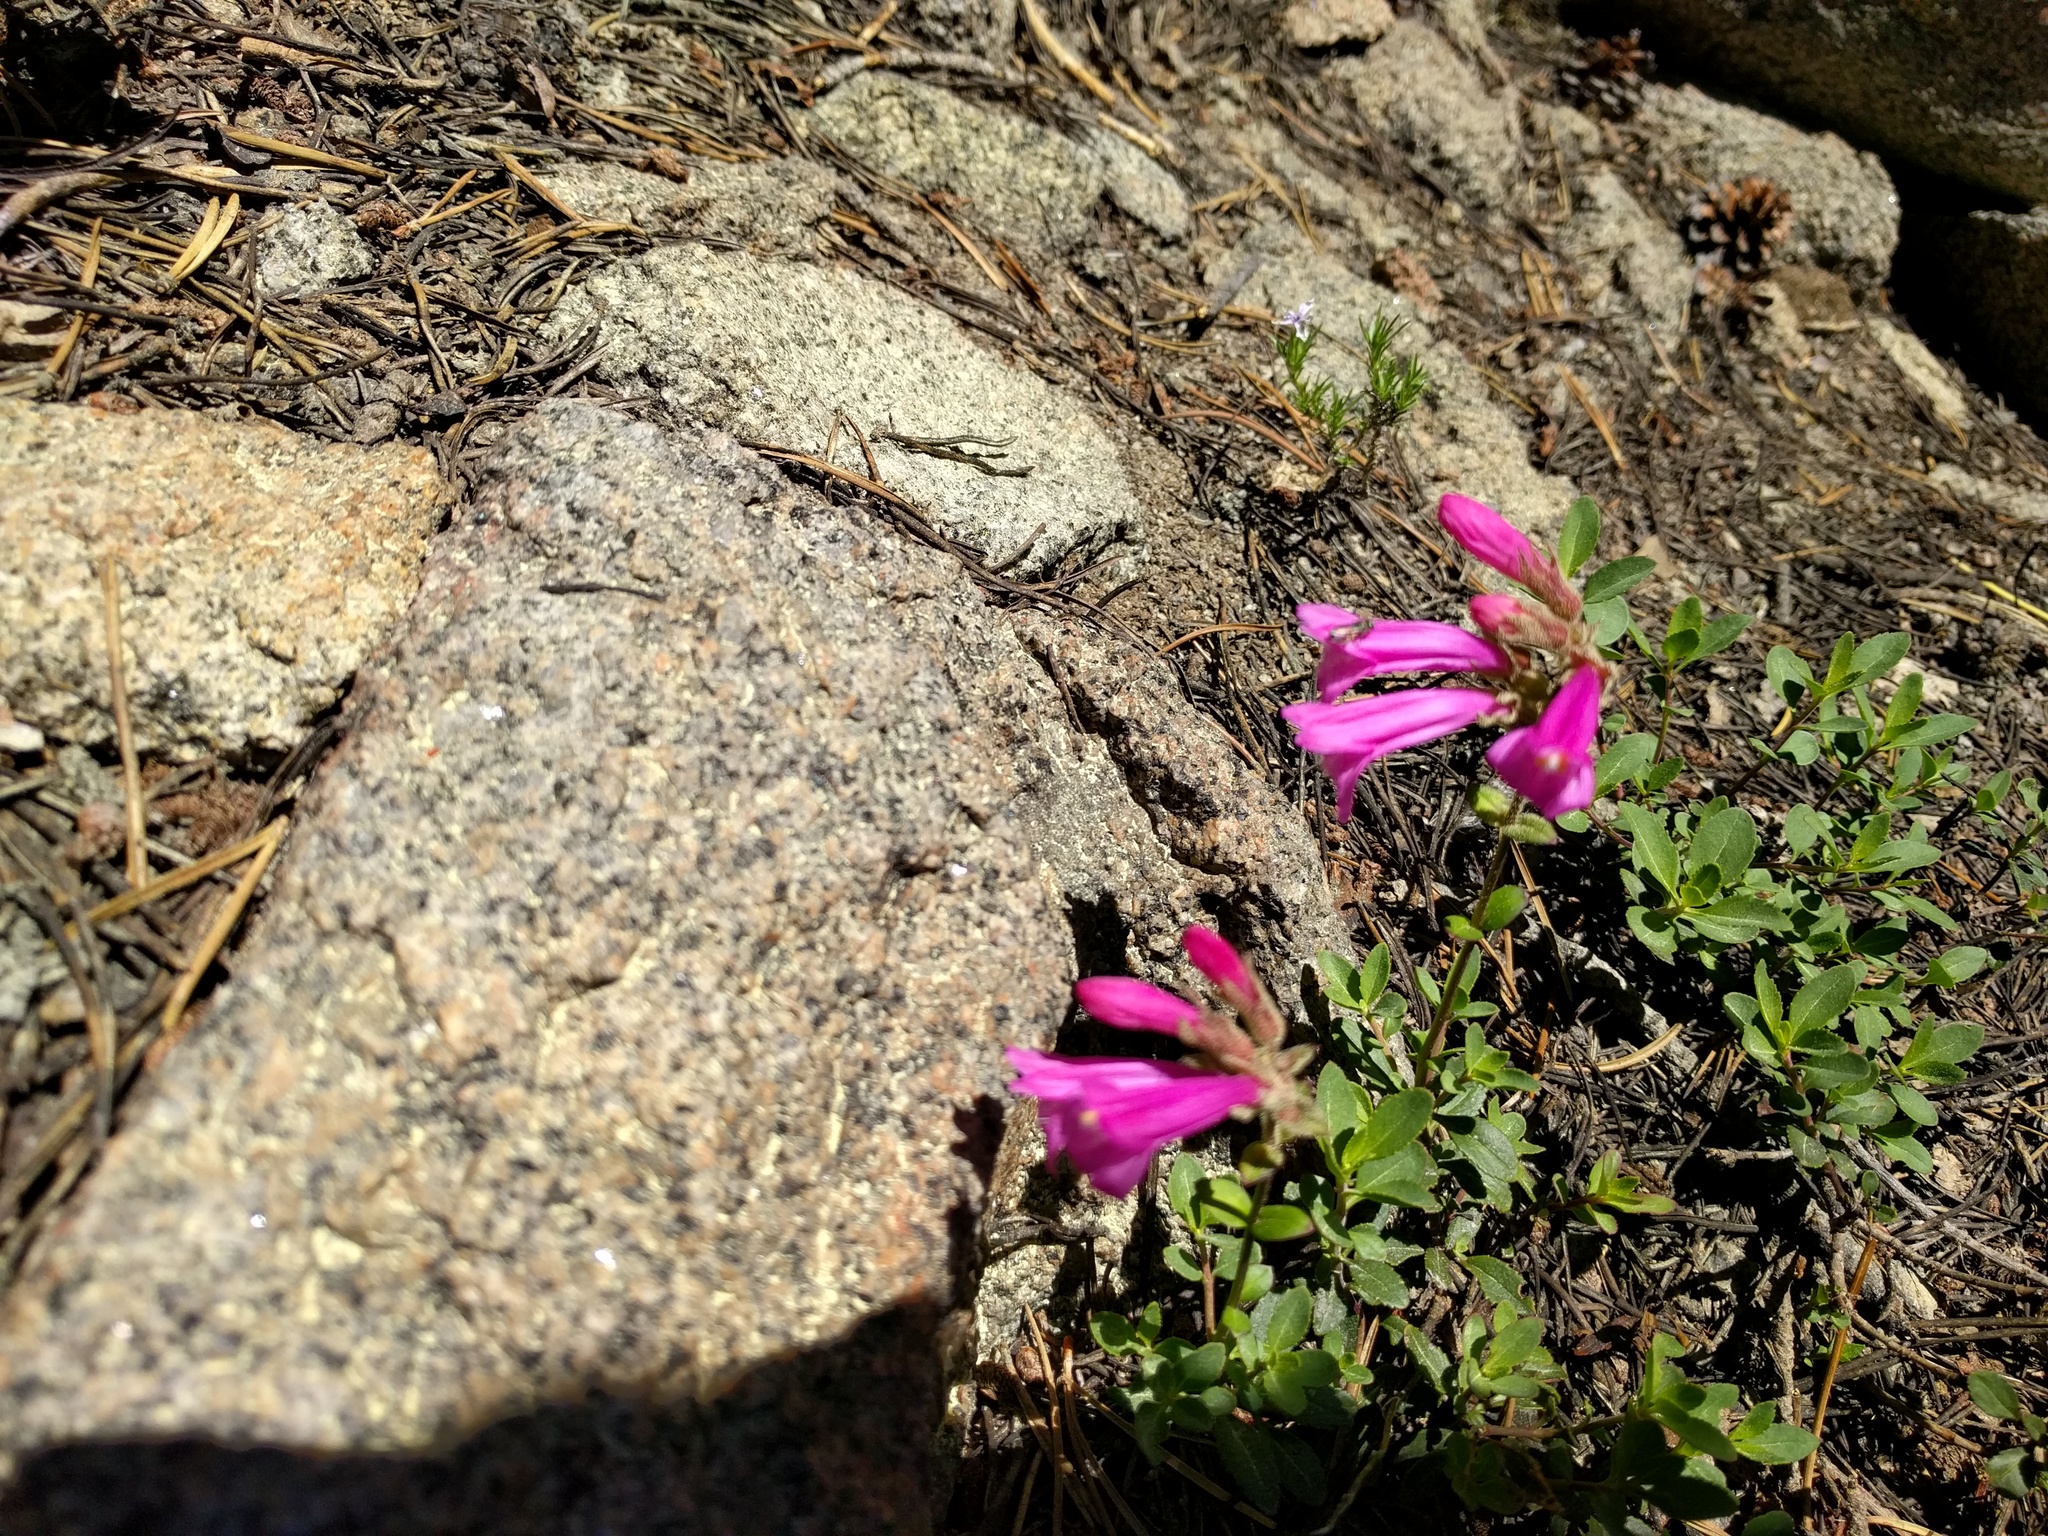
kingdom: Plantae
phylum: Tracheophyta
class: Magnoliopsida
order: Lamiales
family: Plantaginaceae
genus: Penstemon
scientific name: Penstemon newberryi
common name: Mountain-pride
